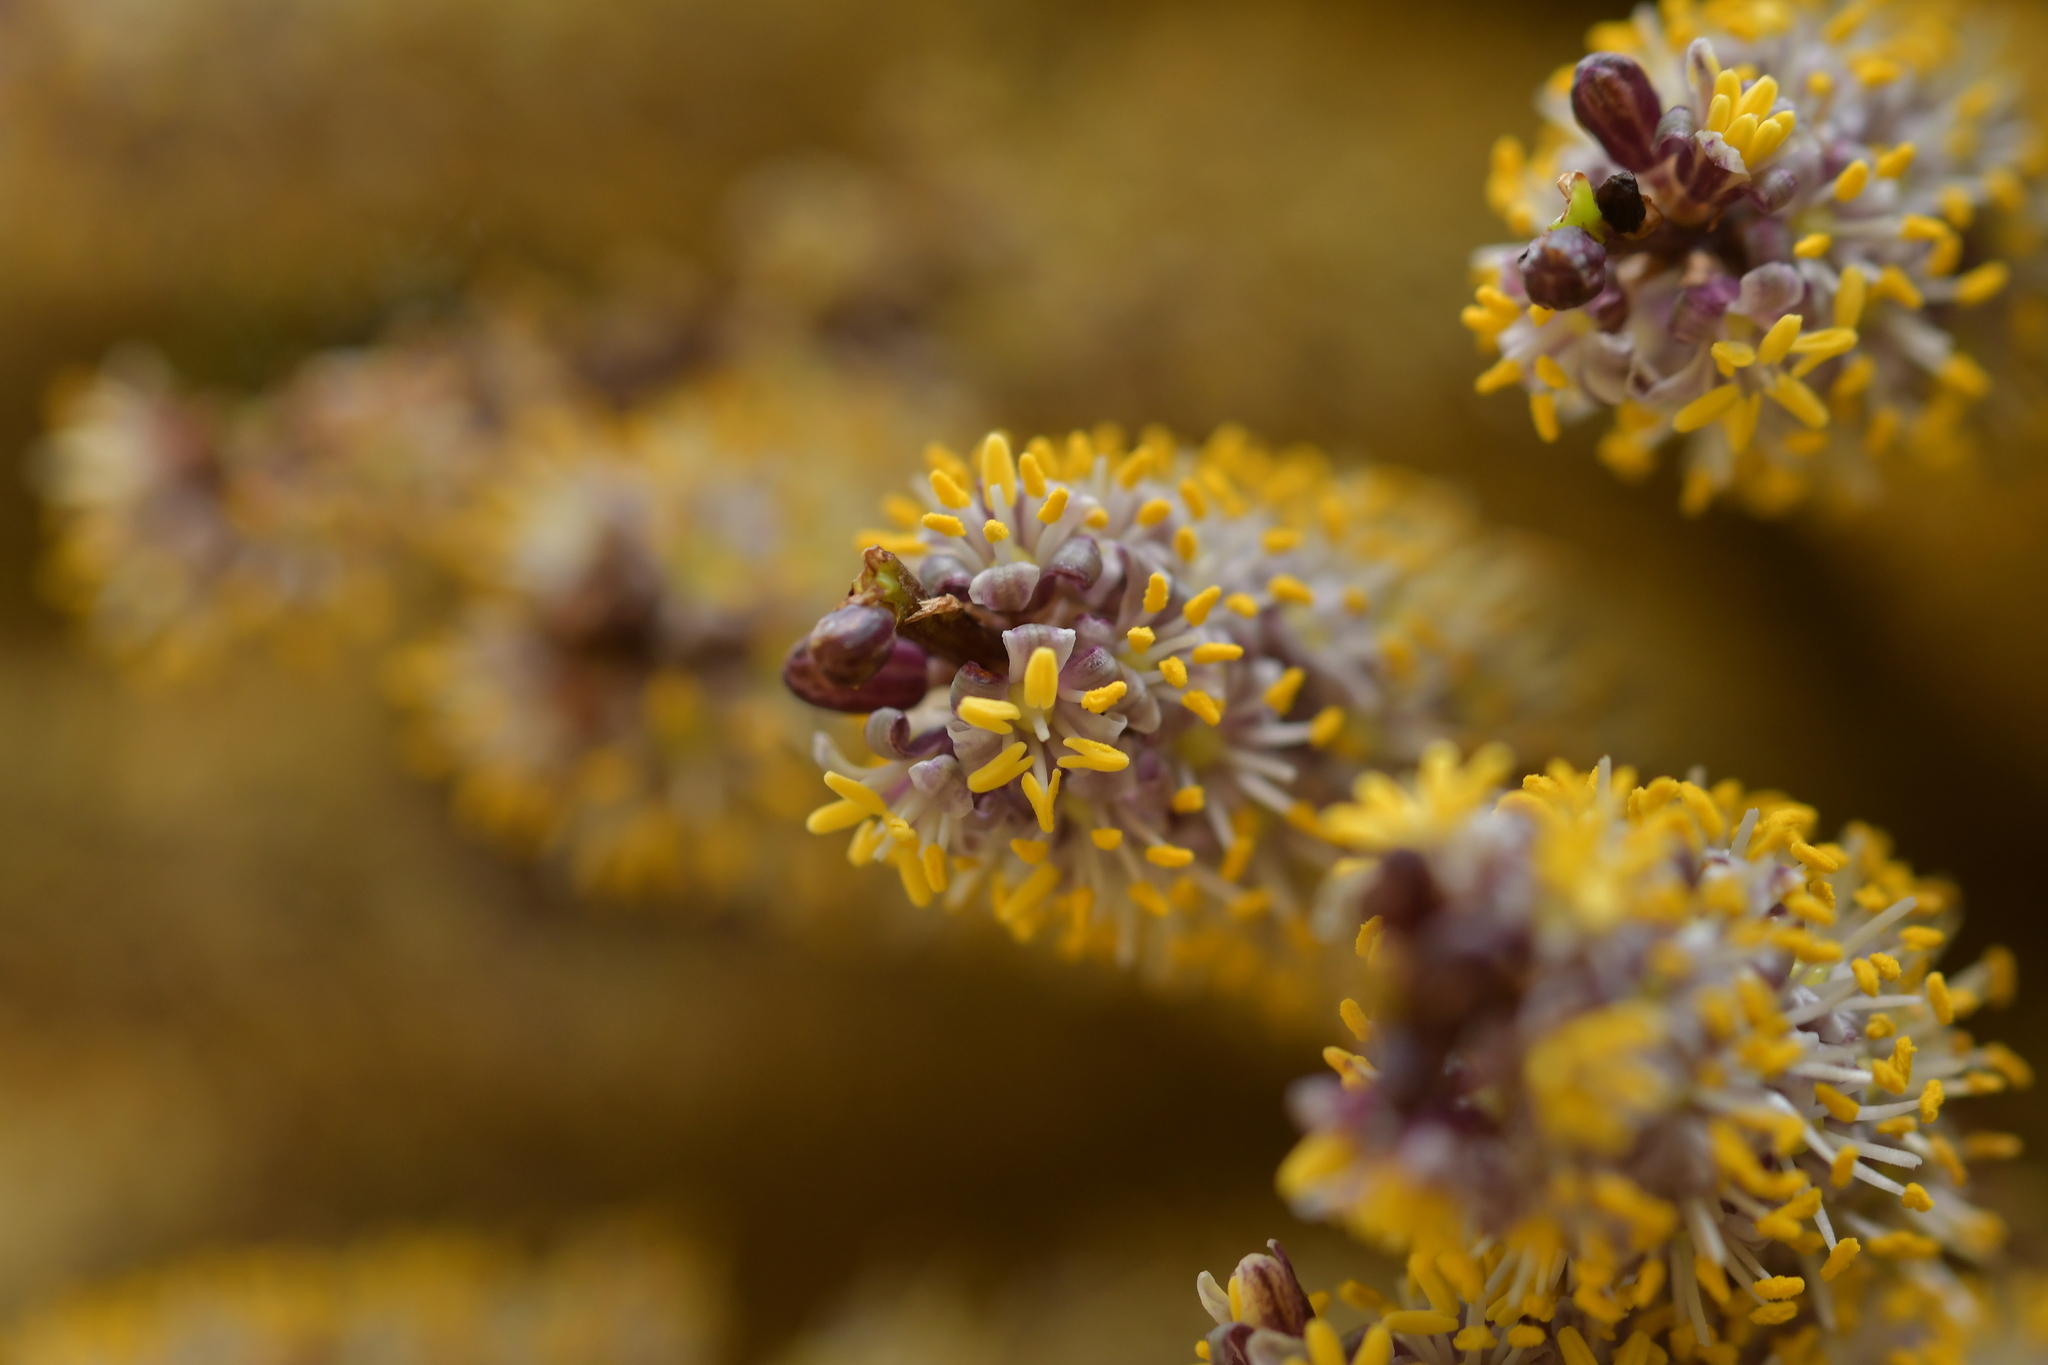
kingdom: Plantae
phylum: Tracheophyta
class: Liliopsida
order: Asparagales
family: Asparagaceae
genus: Cordyline
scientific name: Cordyline indivisa
